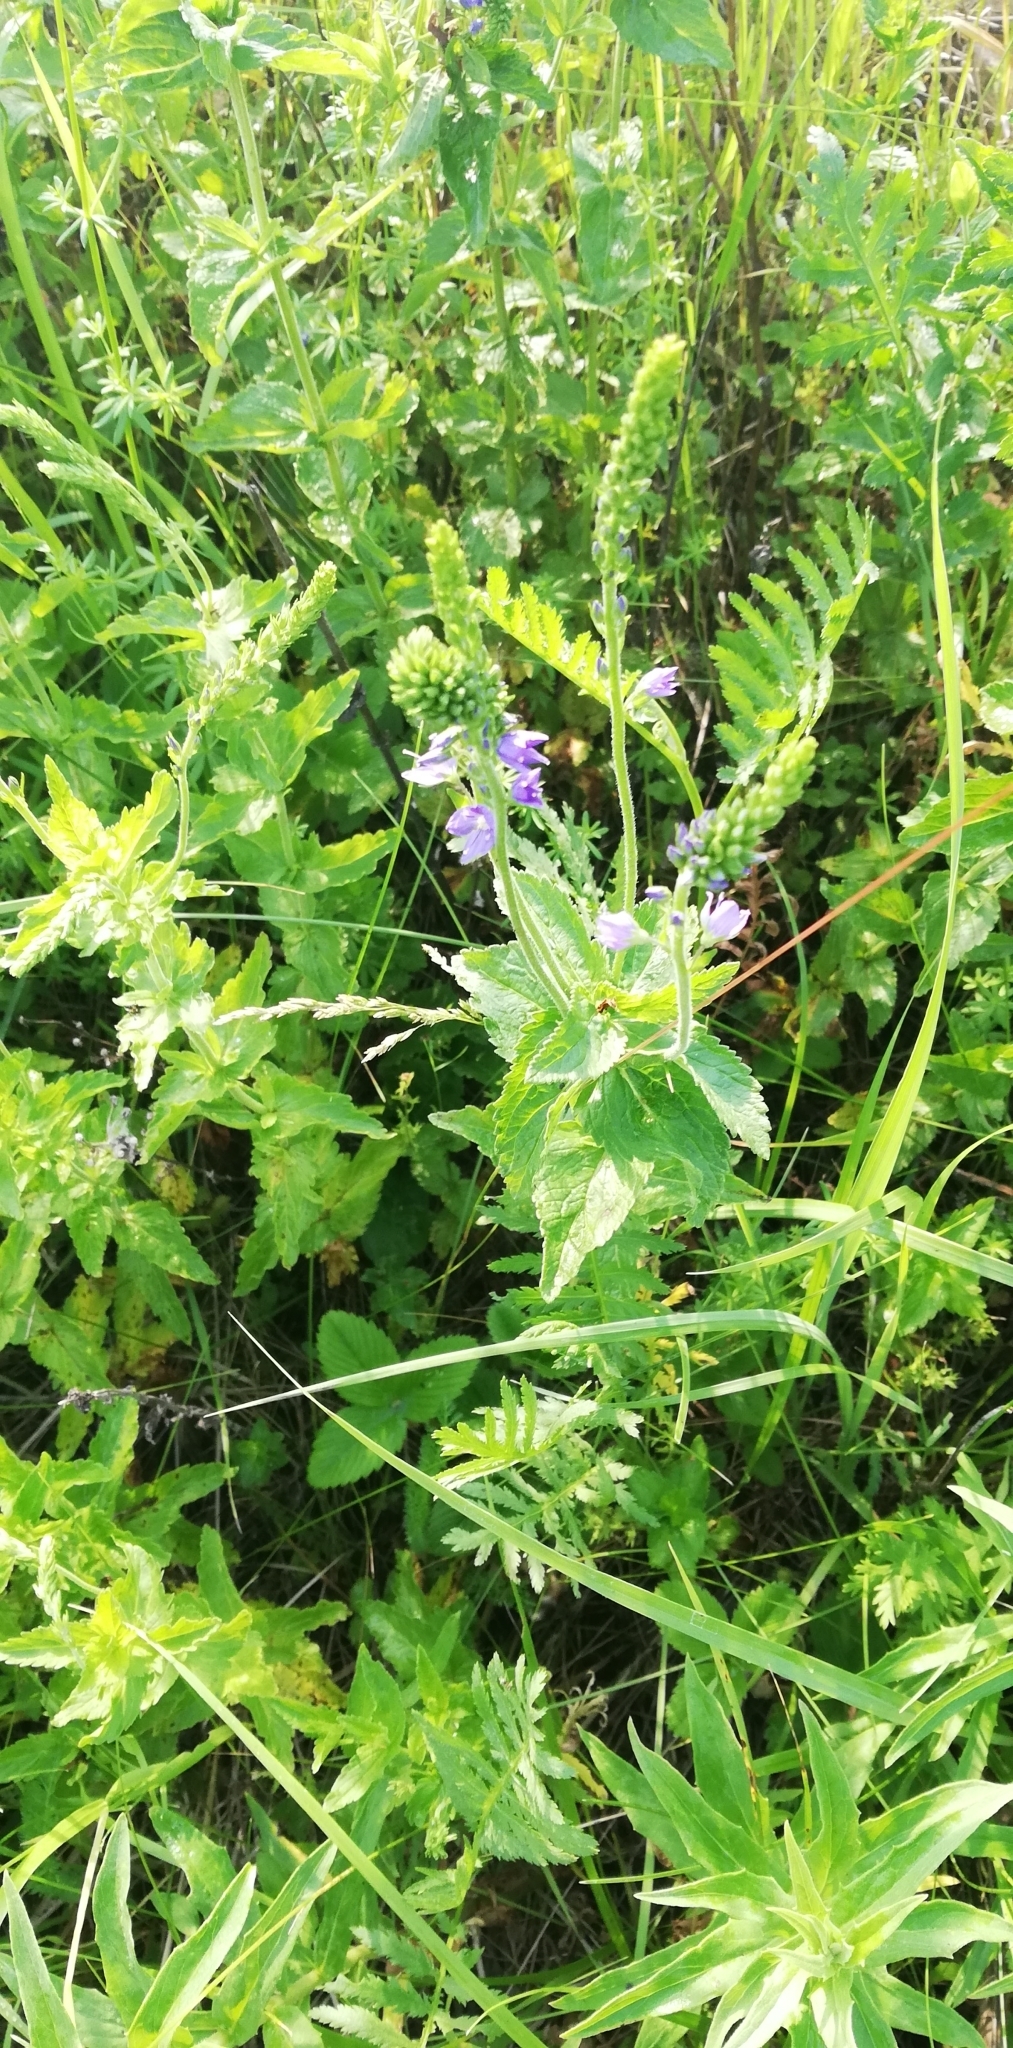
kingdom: Plantae
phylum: Tracheophyta
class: Magnoliopsida
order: Lamiales
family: Plantaginaceae
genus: Veronica
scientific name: Veronica teucrium
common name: Large speedwell
